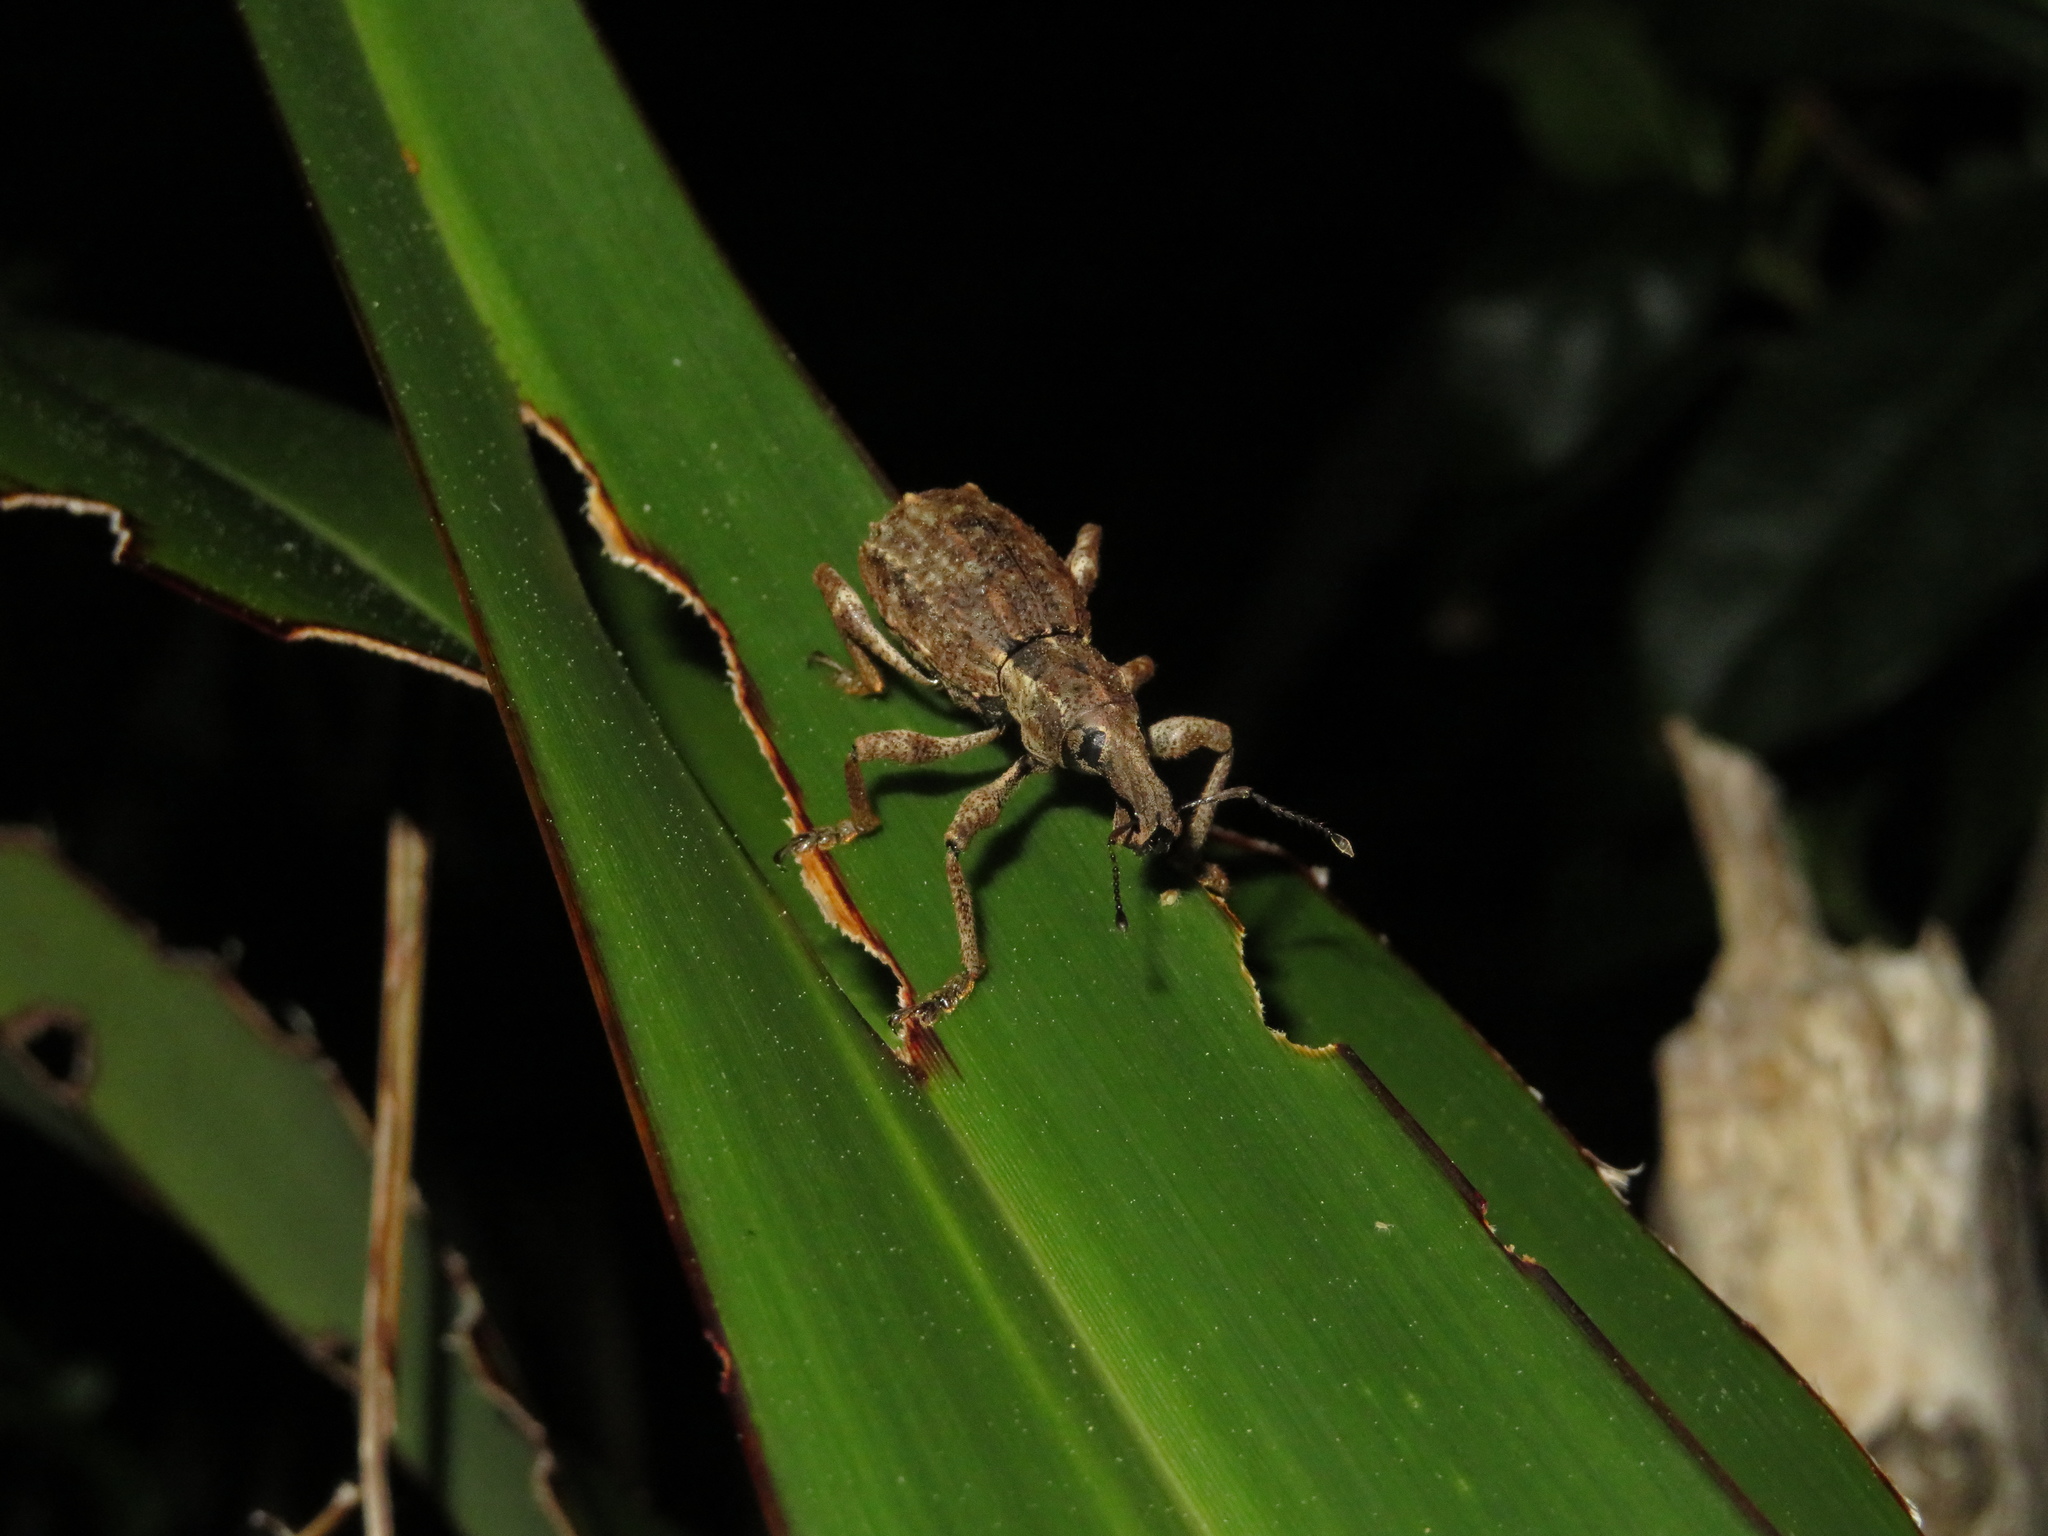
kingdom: Animalia
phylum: Arthropoda
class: Insecta
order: Coleoptera
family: Curculionidae
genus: Anagotus
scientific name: Anagotus fairburni
